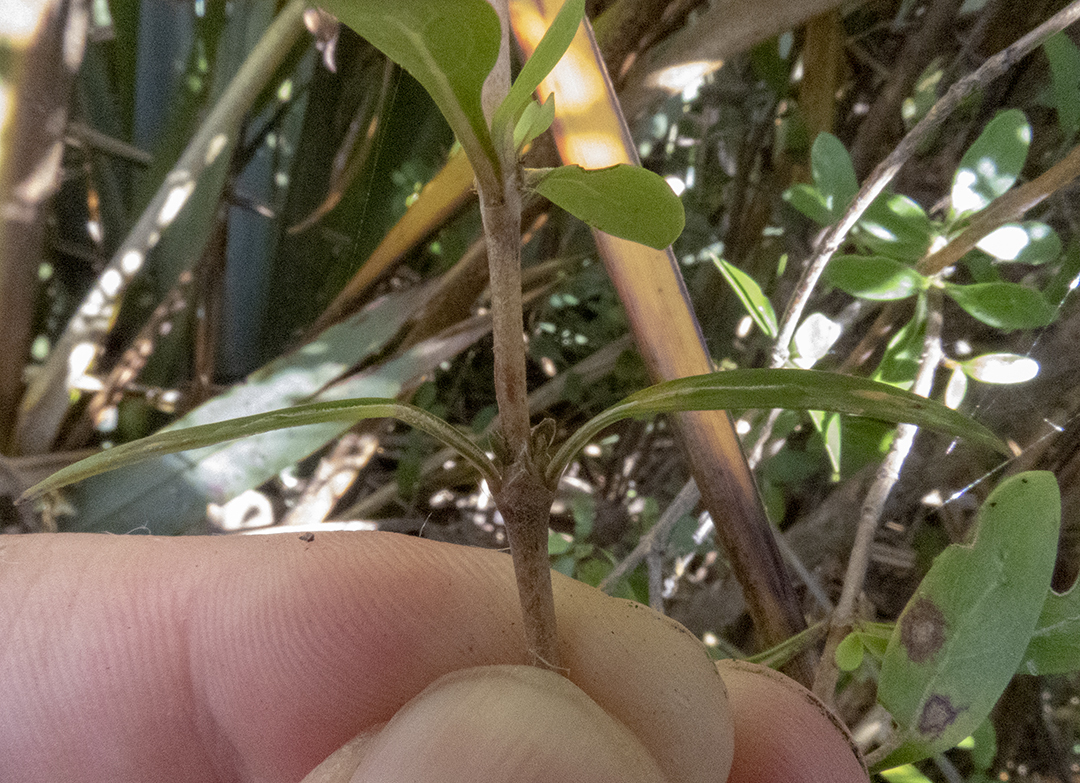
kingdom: Plantae
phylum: Tracheophyta
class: Magnoliopsida
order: Gentianales
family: Rubiaceae
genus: Coprosma
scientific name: Coprosma cunninghamii
